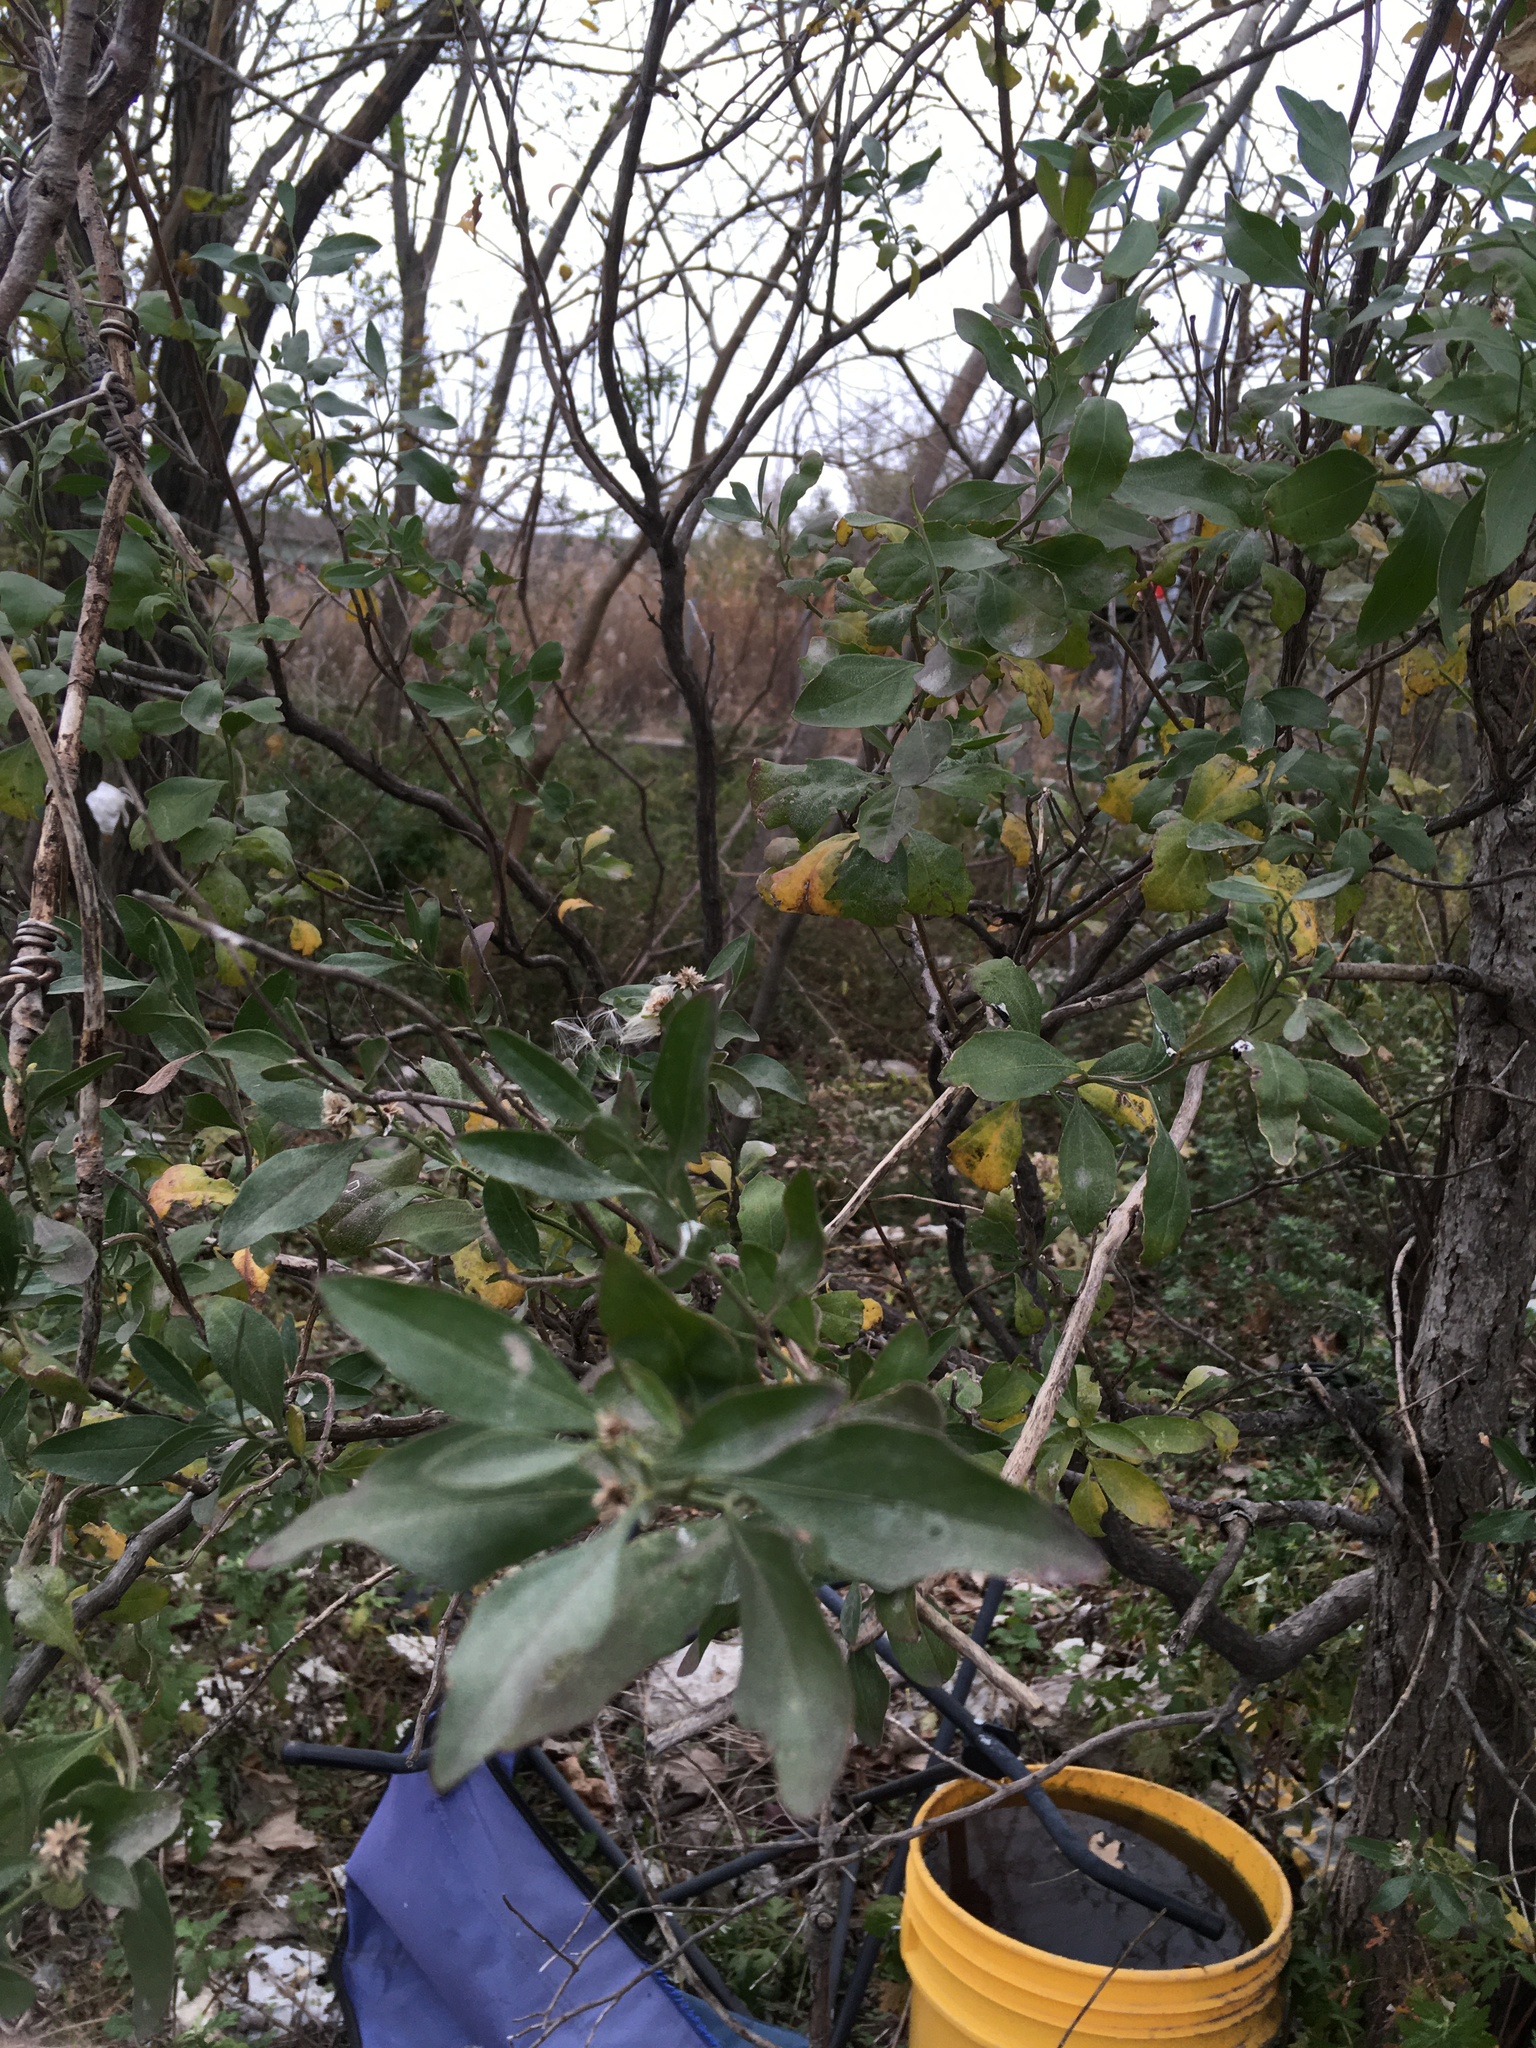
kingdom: Plantae
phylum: Tracheophyta
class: Magnoliopsida
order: Asterales
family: Asteraceae
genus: Baccharis
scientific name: Baccharis halimifolia
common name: Eastern baccharis
